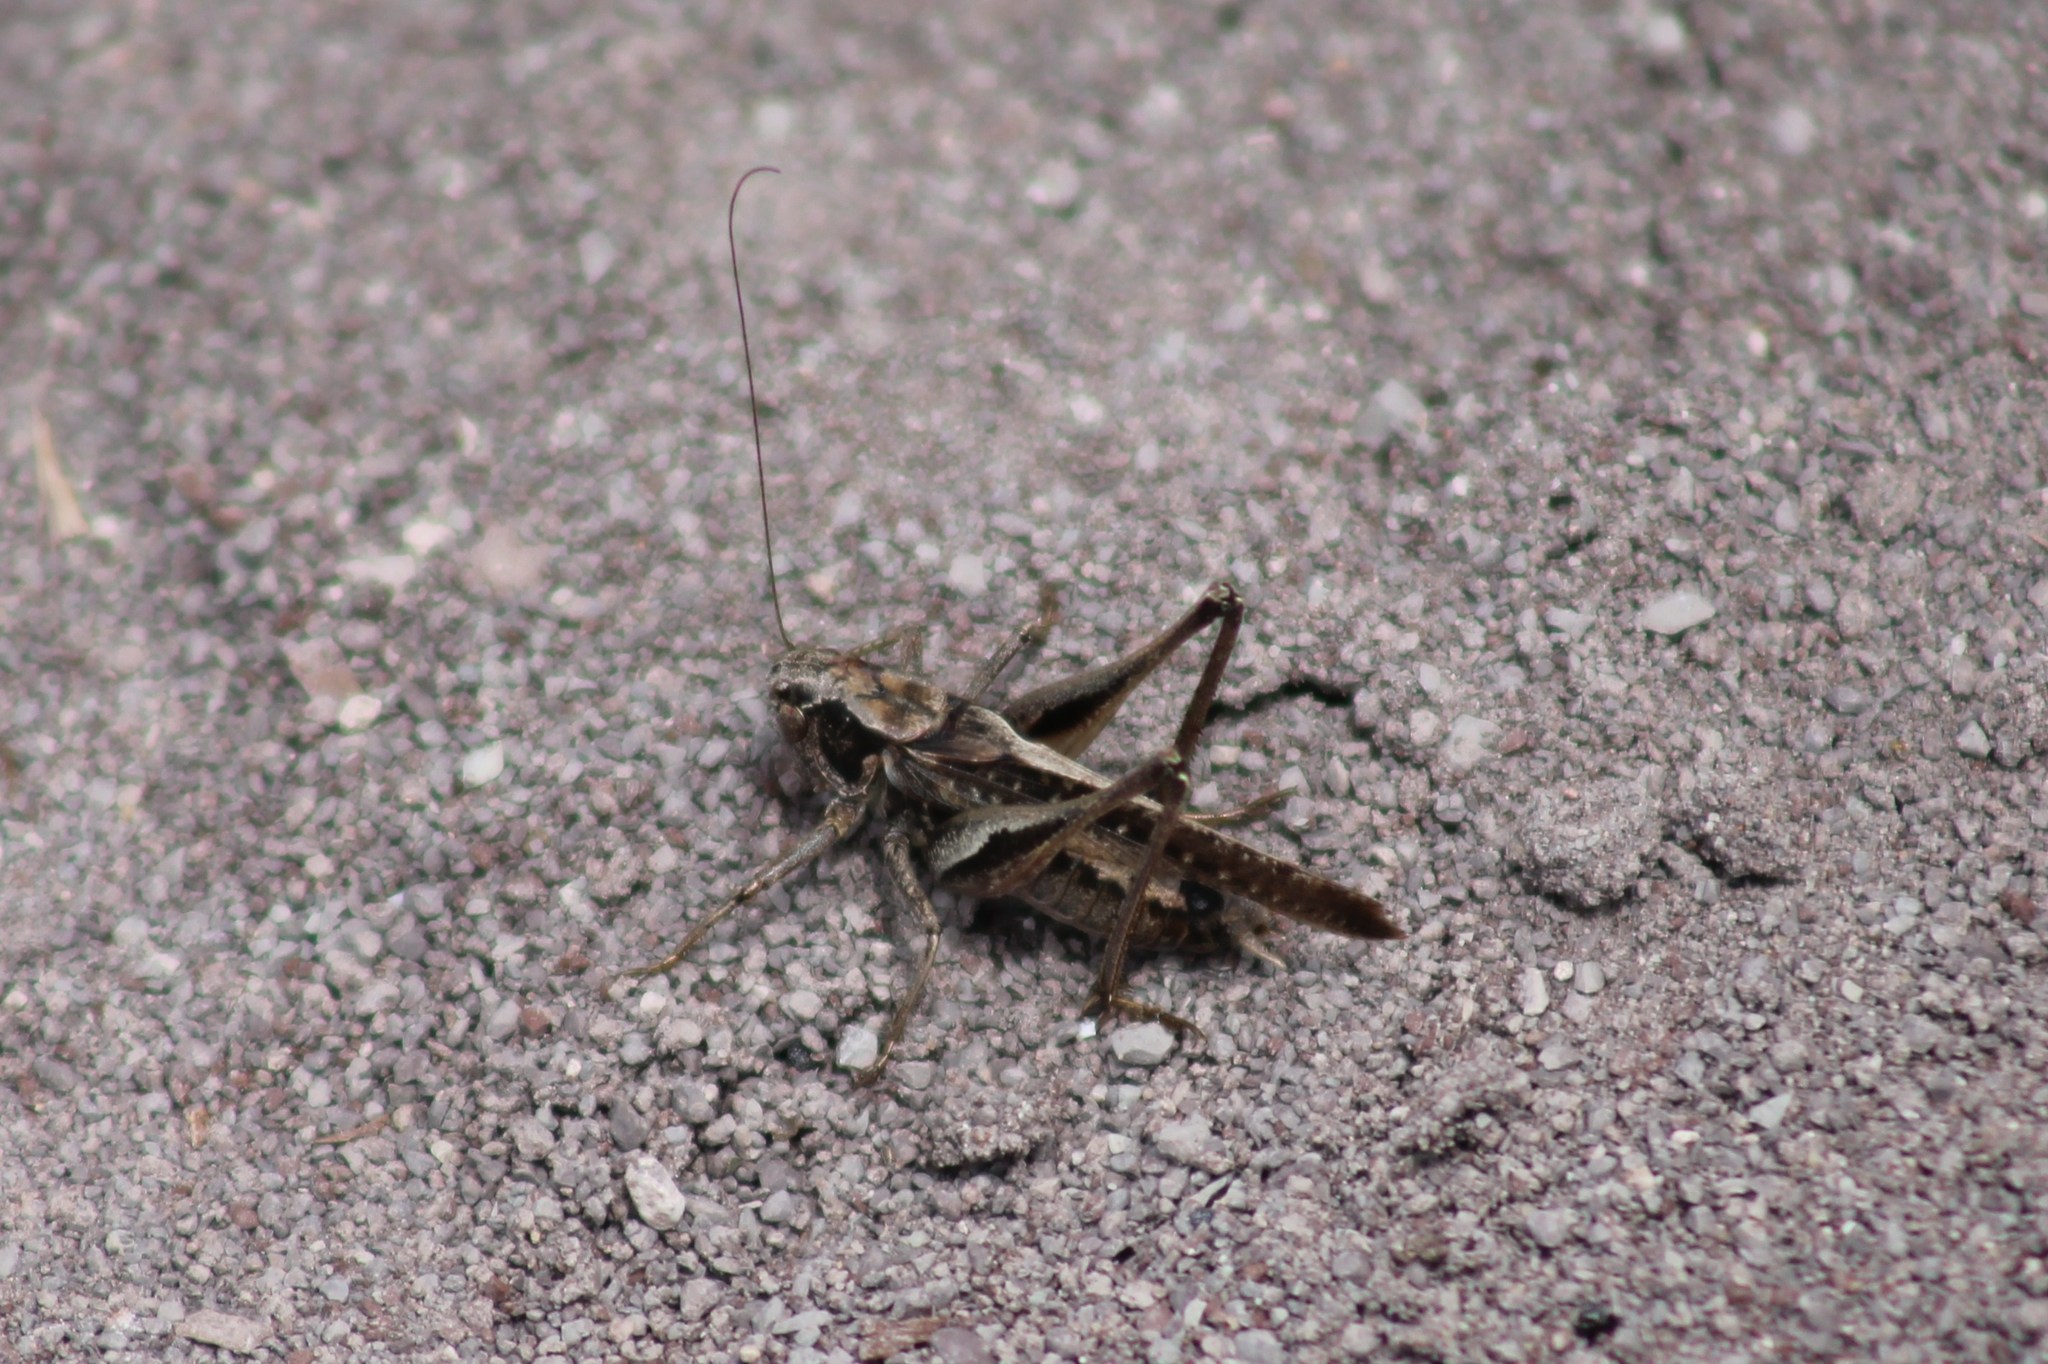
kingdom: Animalia
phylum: Arthropoda
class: Insecta
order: Orthoptera
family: Tettigoniidae
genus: Platycleis
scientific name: Platycleis albopunctata
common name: Grey bush-cricket
